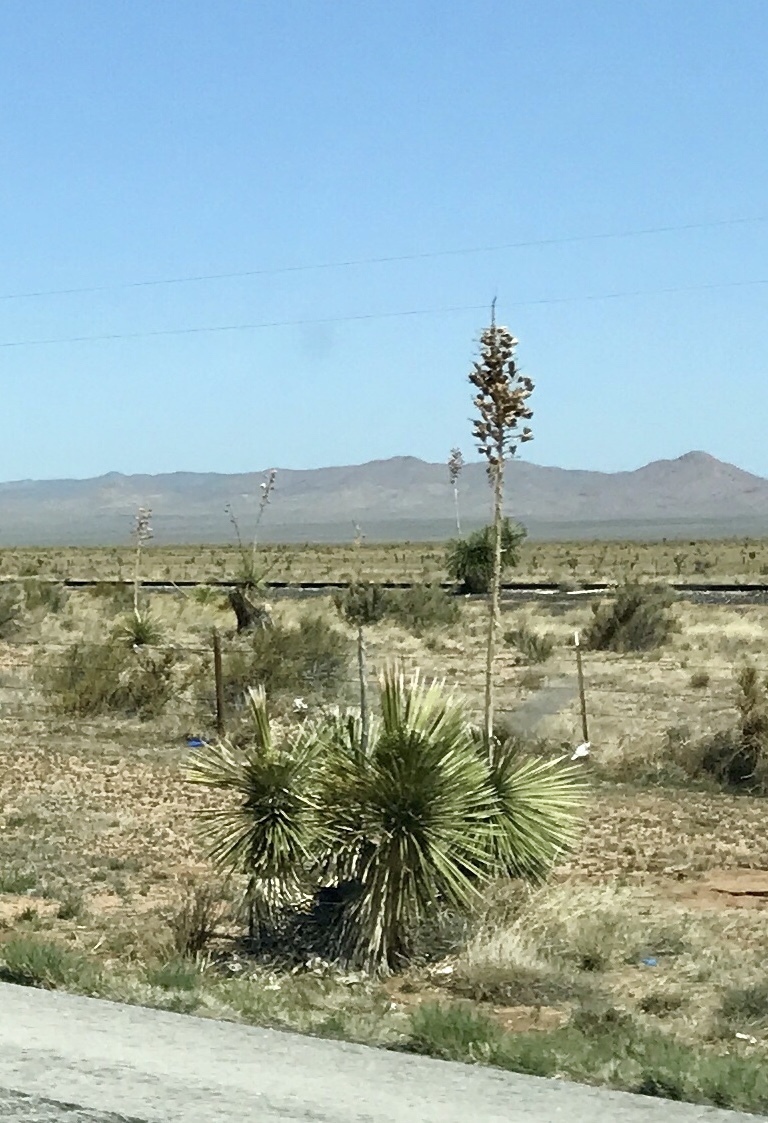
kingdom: Plantae
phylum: Tracheophyta
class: Liliopsida
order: Asparagales
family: Asparagaceae
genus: Yucca
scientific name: Yucca elata
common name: Palmella
